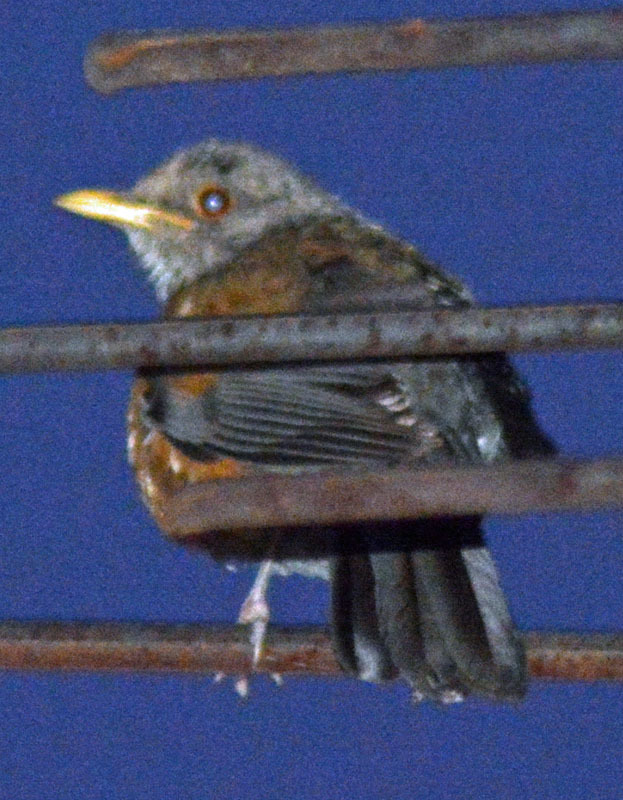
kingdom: Animalia
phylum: Chordata
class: Aves
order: Passeriformes
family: Turdidae
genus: Turdus
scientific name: Turdus rufopalliatus
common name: Rufous-backed robin
